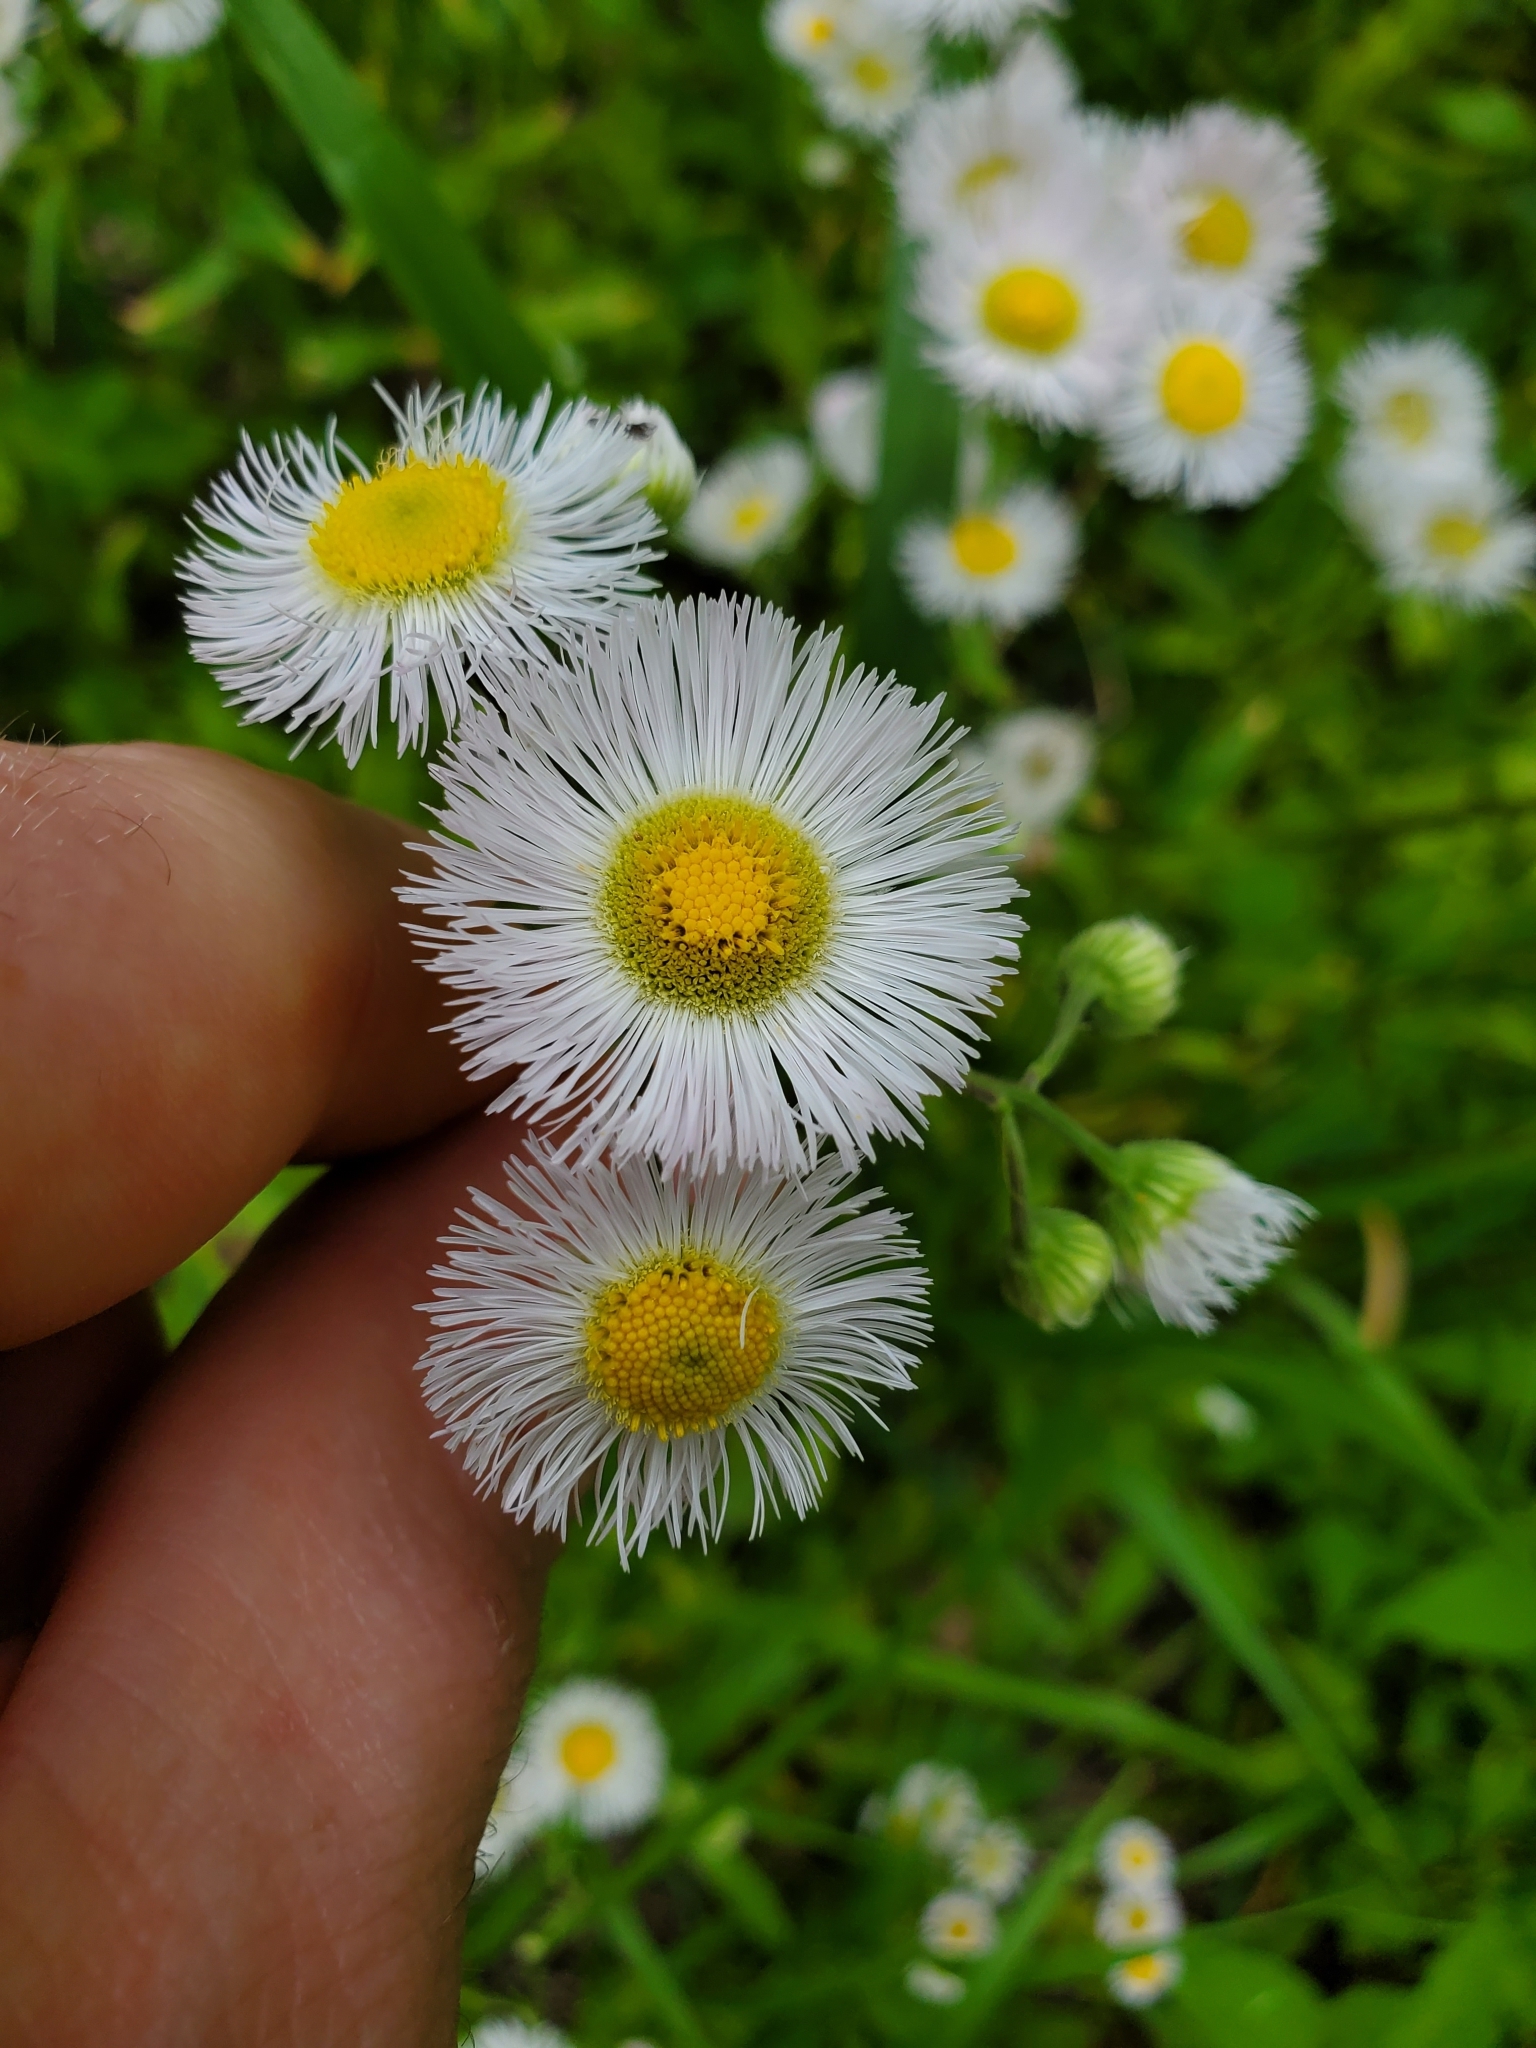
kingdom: Plantae
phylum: Tracheophyta
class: Magnoliopsida
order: Asterales
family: Asteraceae
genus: Erigeron
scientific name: Erigeron philadelphicus
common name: Robin's-plantain
